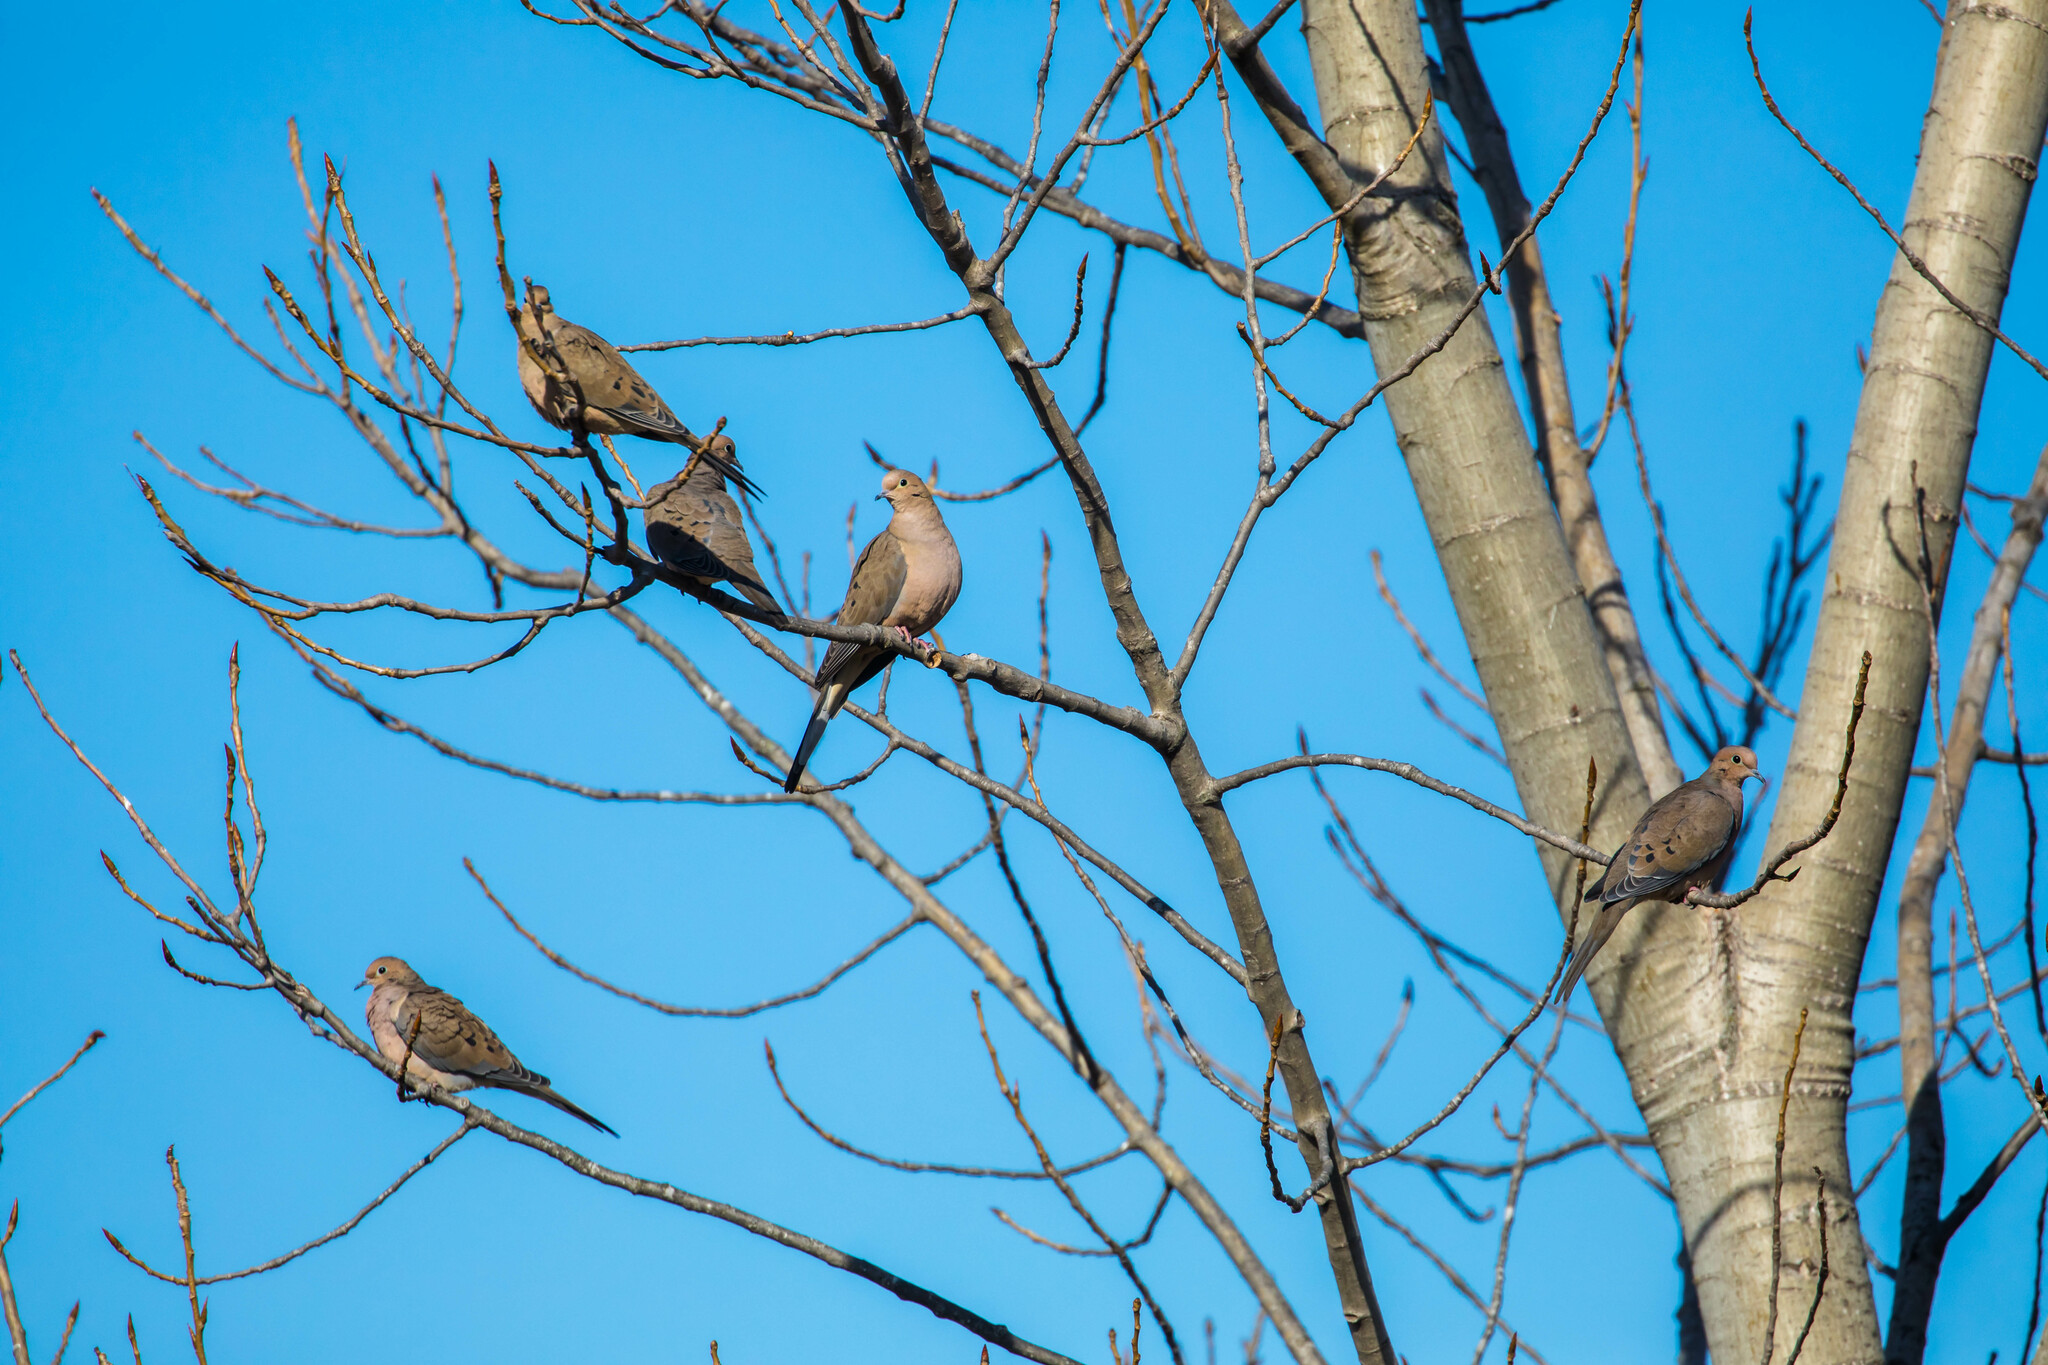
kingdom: Animalia
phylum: Chordata
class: Aves
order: Columbiformes
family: Columbidae
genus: Zenaida
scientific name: Zenaida macroura
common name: Mourning dove
